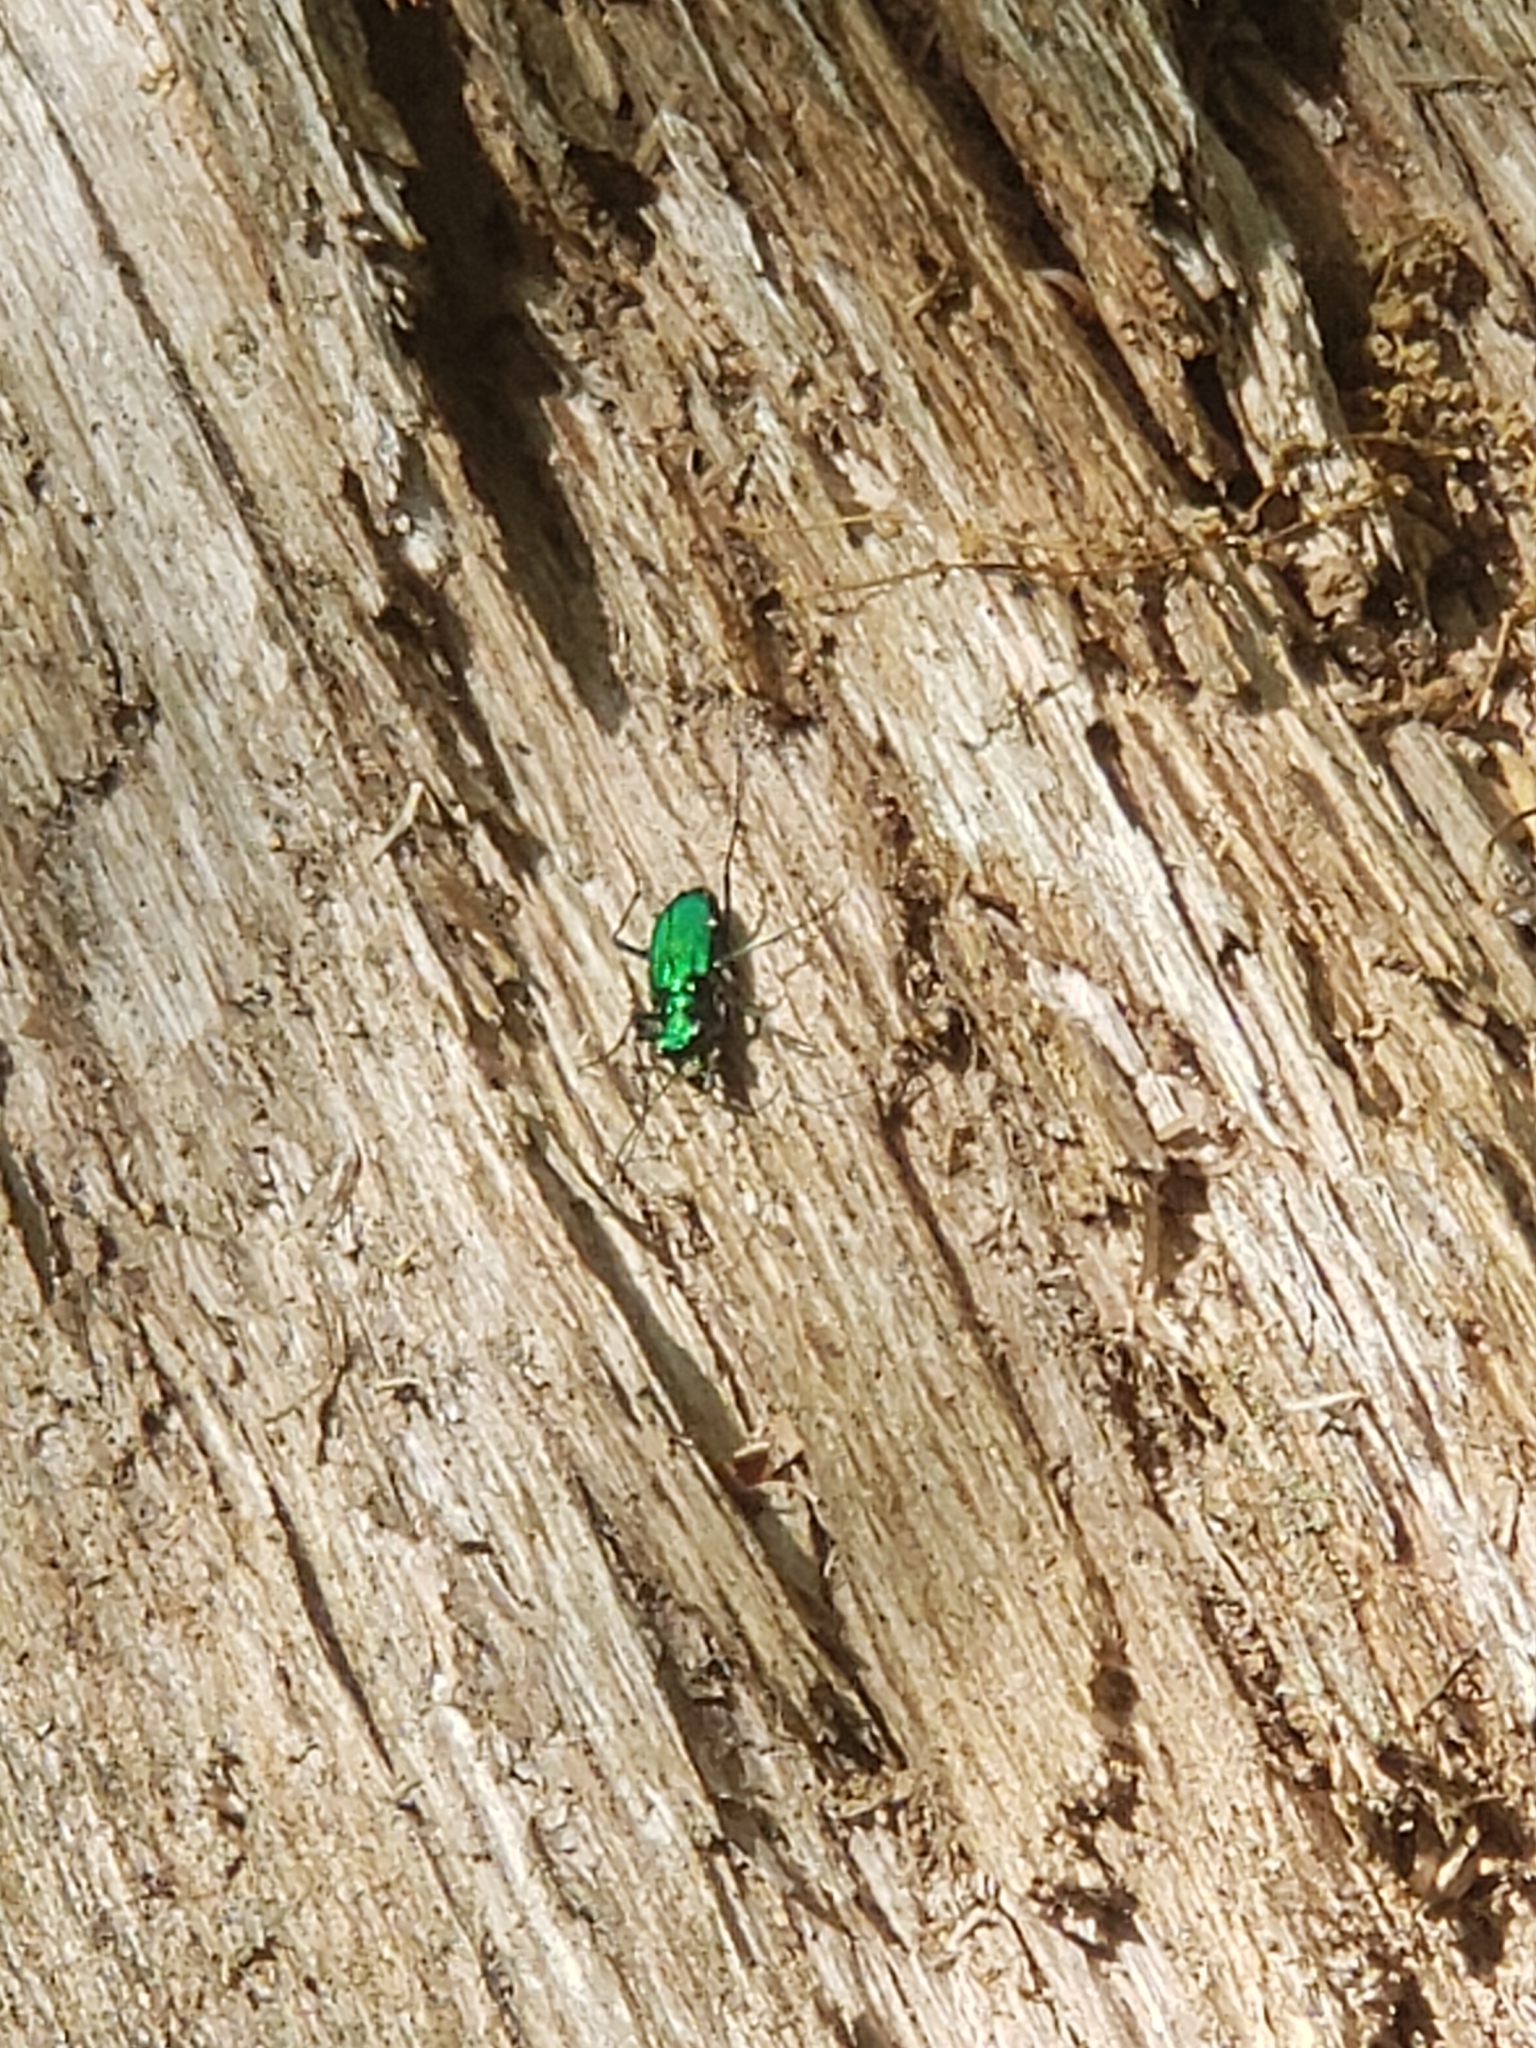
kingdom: Animalia
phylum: Arthropoda
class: Insecta
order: Coleoptera
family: Carabidae
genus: Cicindela
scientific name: Cicindela sexguttata
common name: Six-spotted tiger beetle
